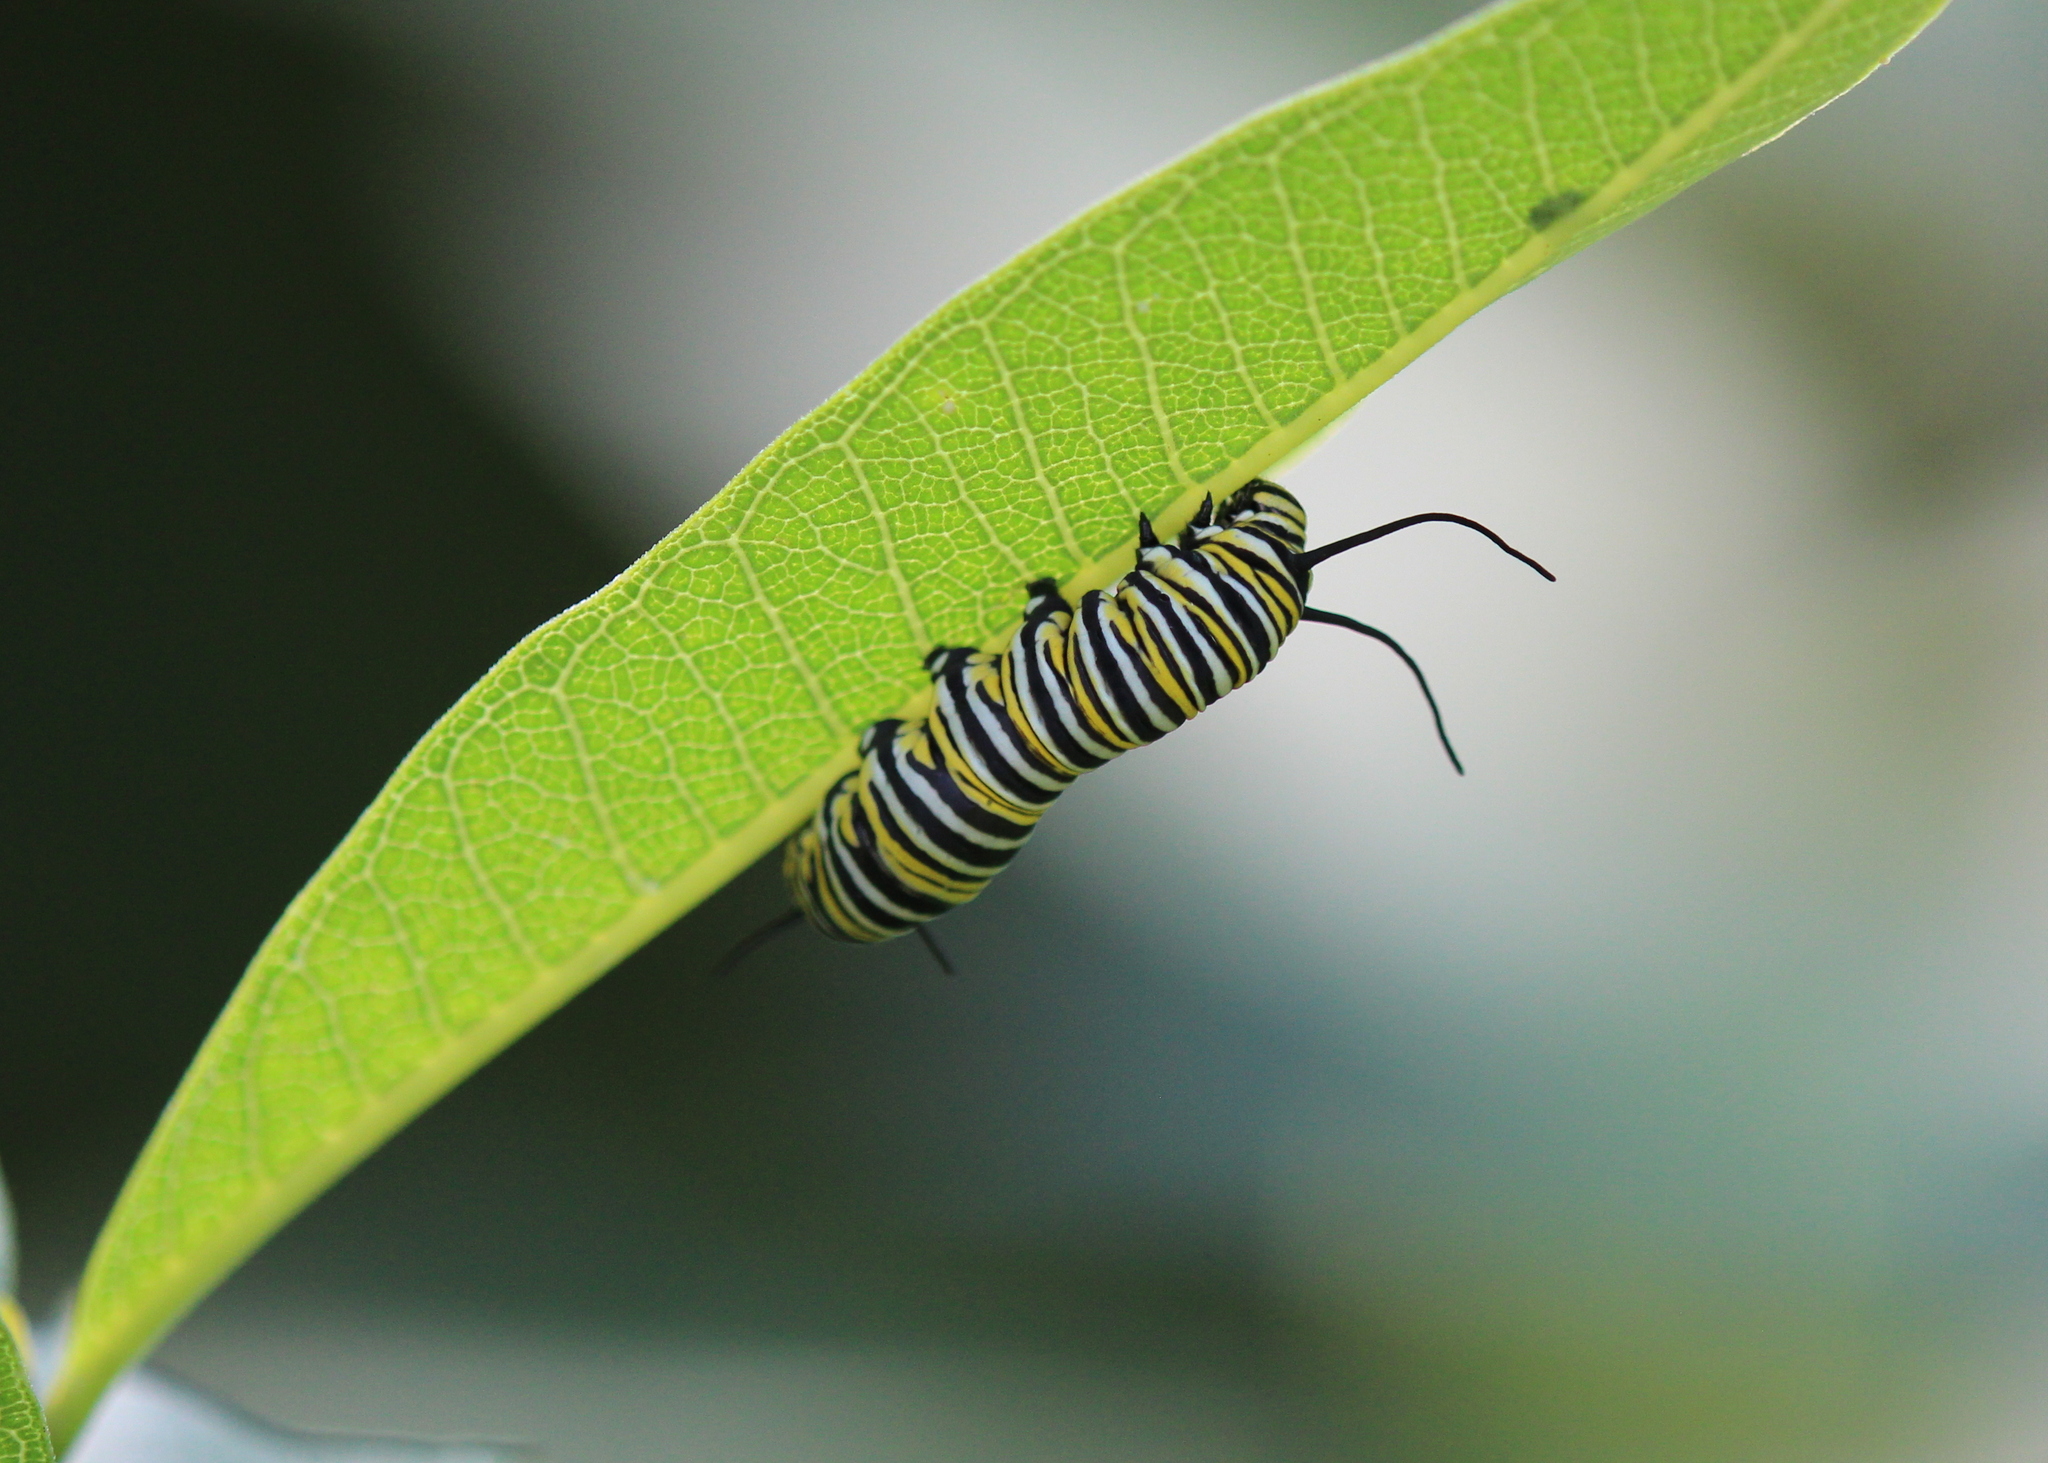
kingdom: Animalia
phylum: Arthropoda
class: Insecta
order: Lepidoptera
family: Nymphalidae
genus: Danaus
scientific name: Danaus plexippus
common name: Monarch
